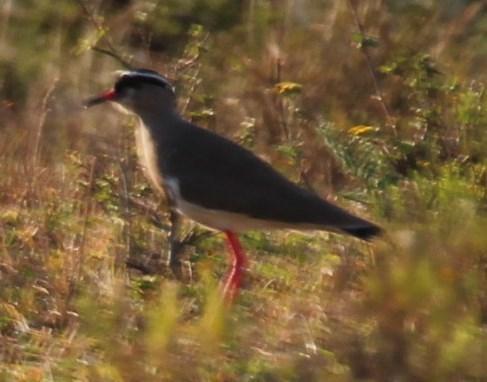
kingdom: Animalia
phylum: Chordata
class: Aves
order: Charadriiformes
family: Charadriidae
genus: Vanellus
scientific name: Vanellus coronatus
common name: Crowned lapwing
